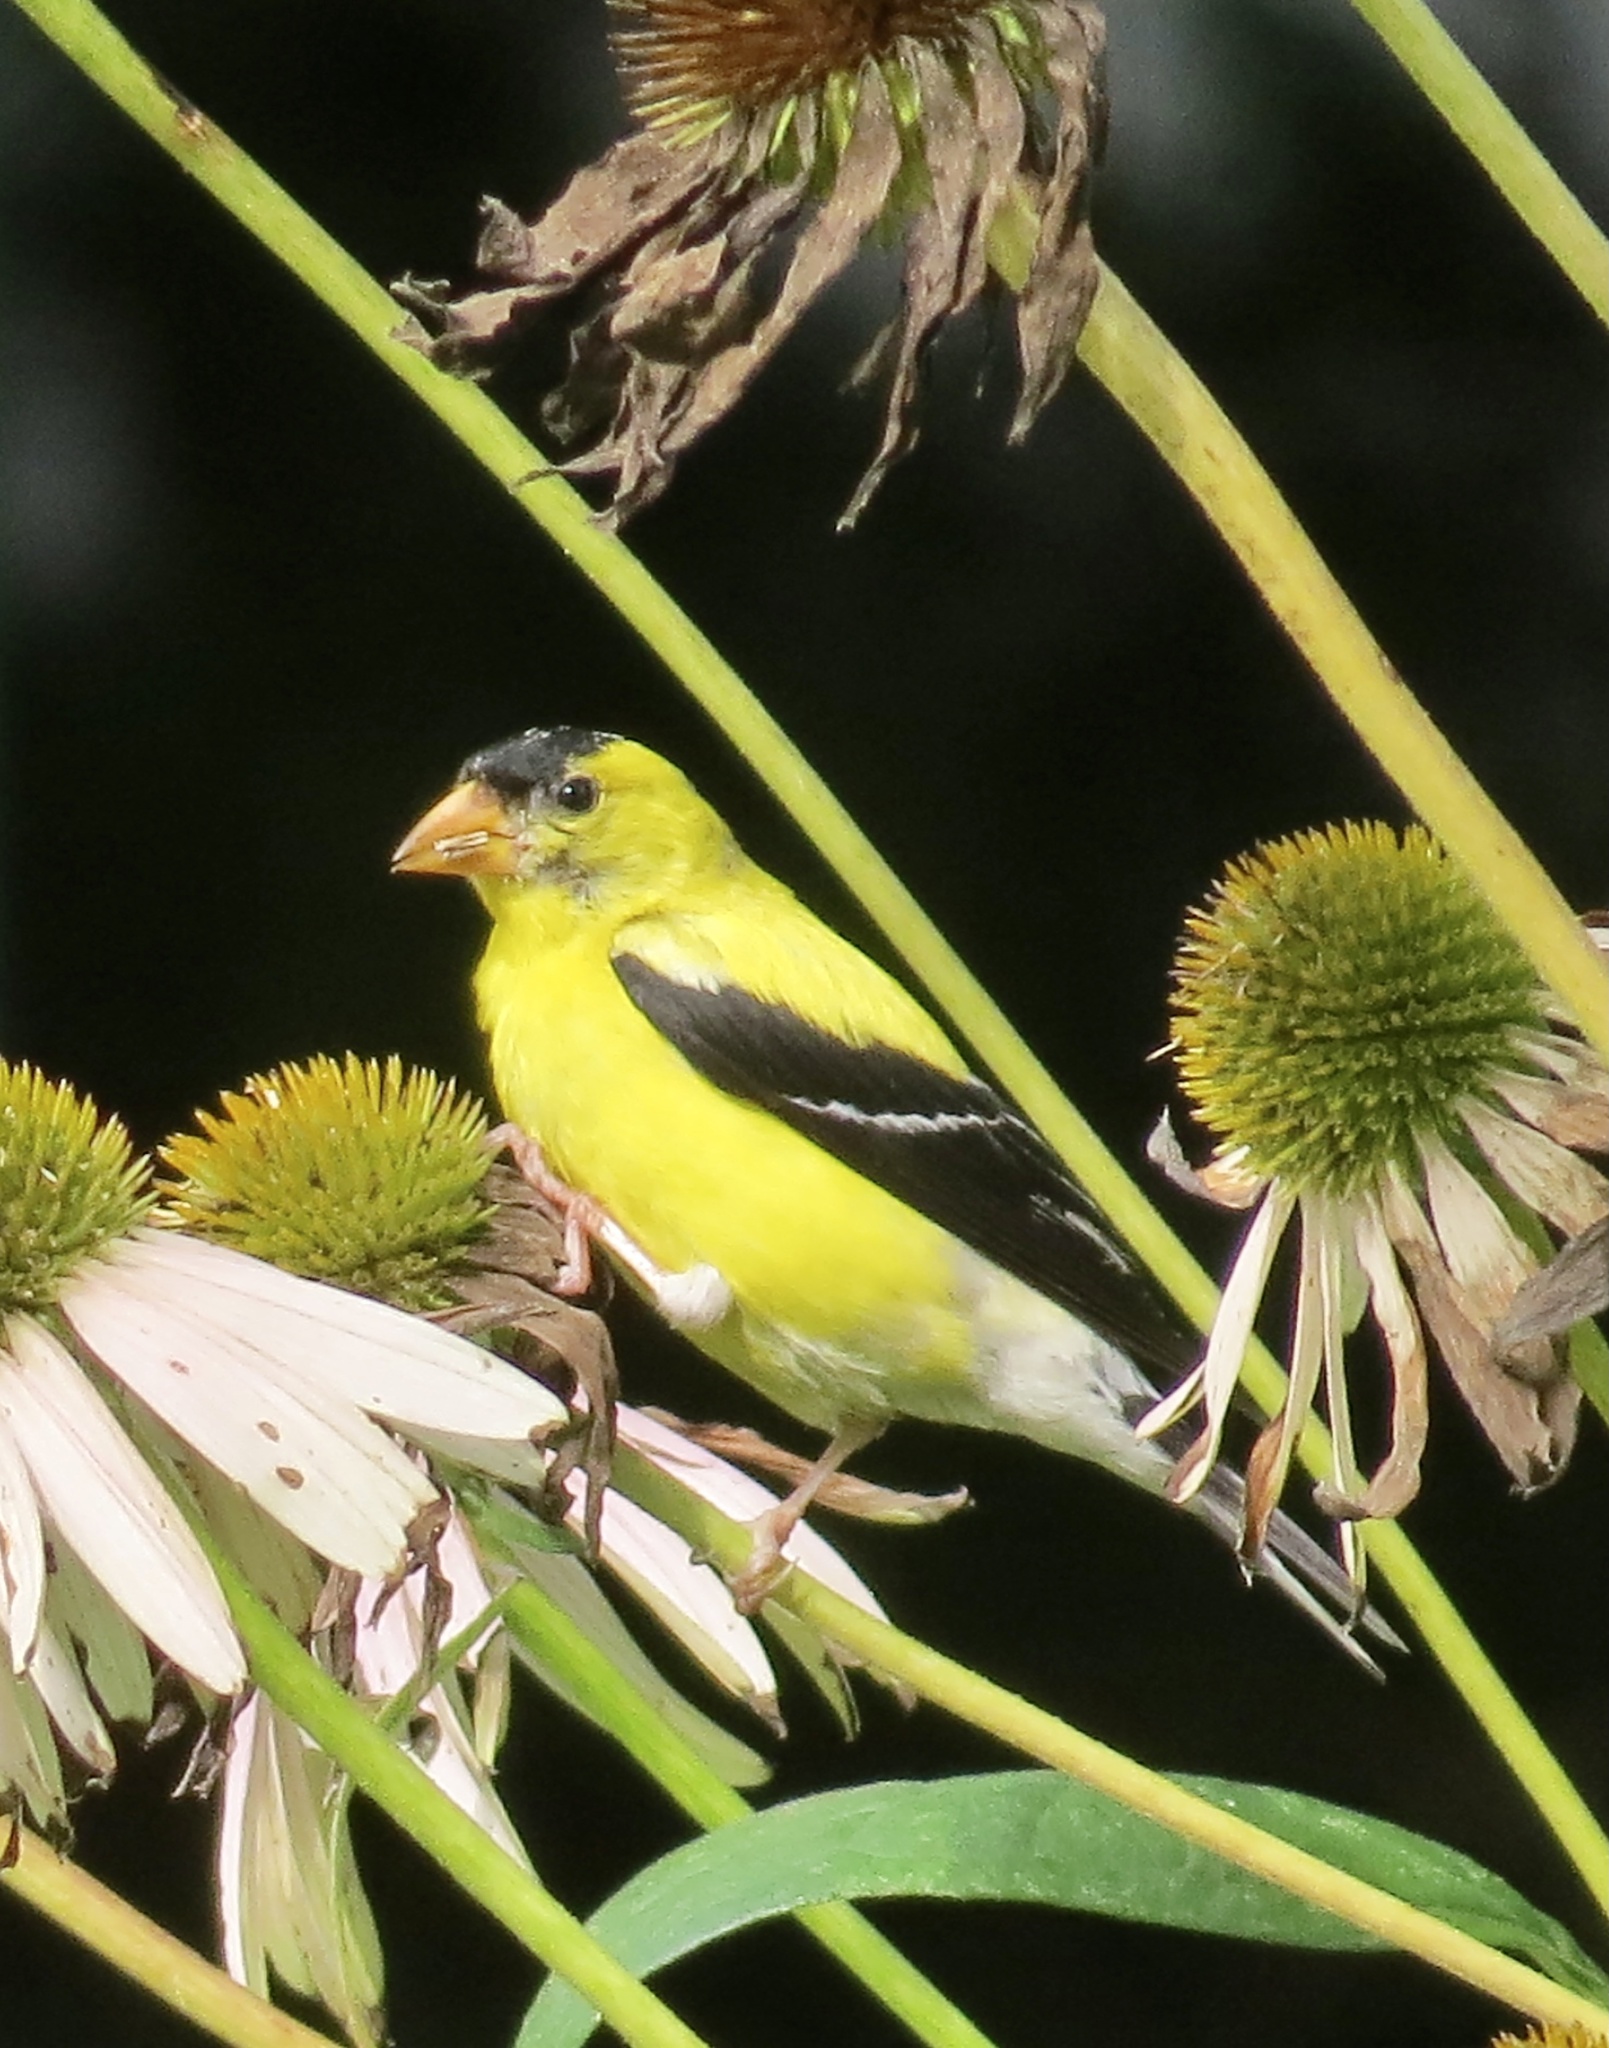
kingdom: Animalia
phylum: Chordata
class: Aves
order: Passeriformes
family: Fringillidae
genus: Spinus
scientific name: Spinus tristis
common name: American goldfinch
